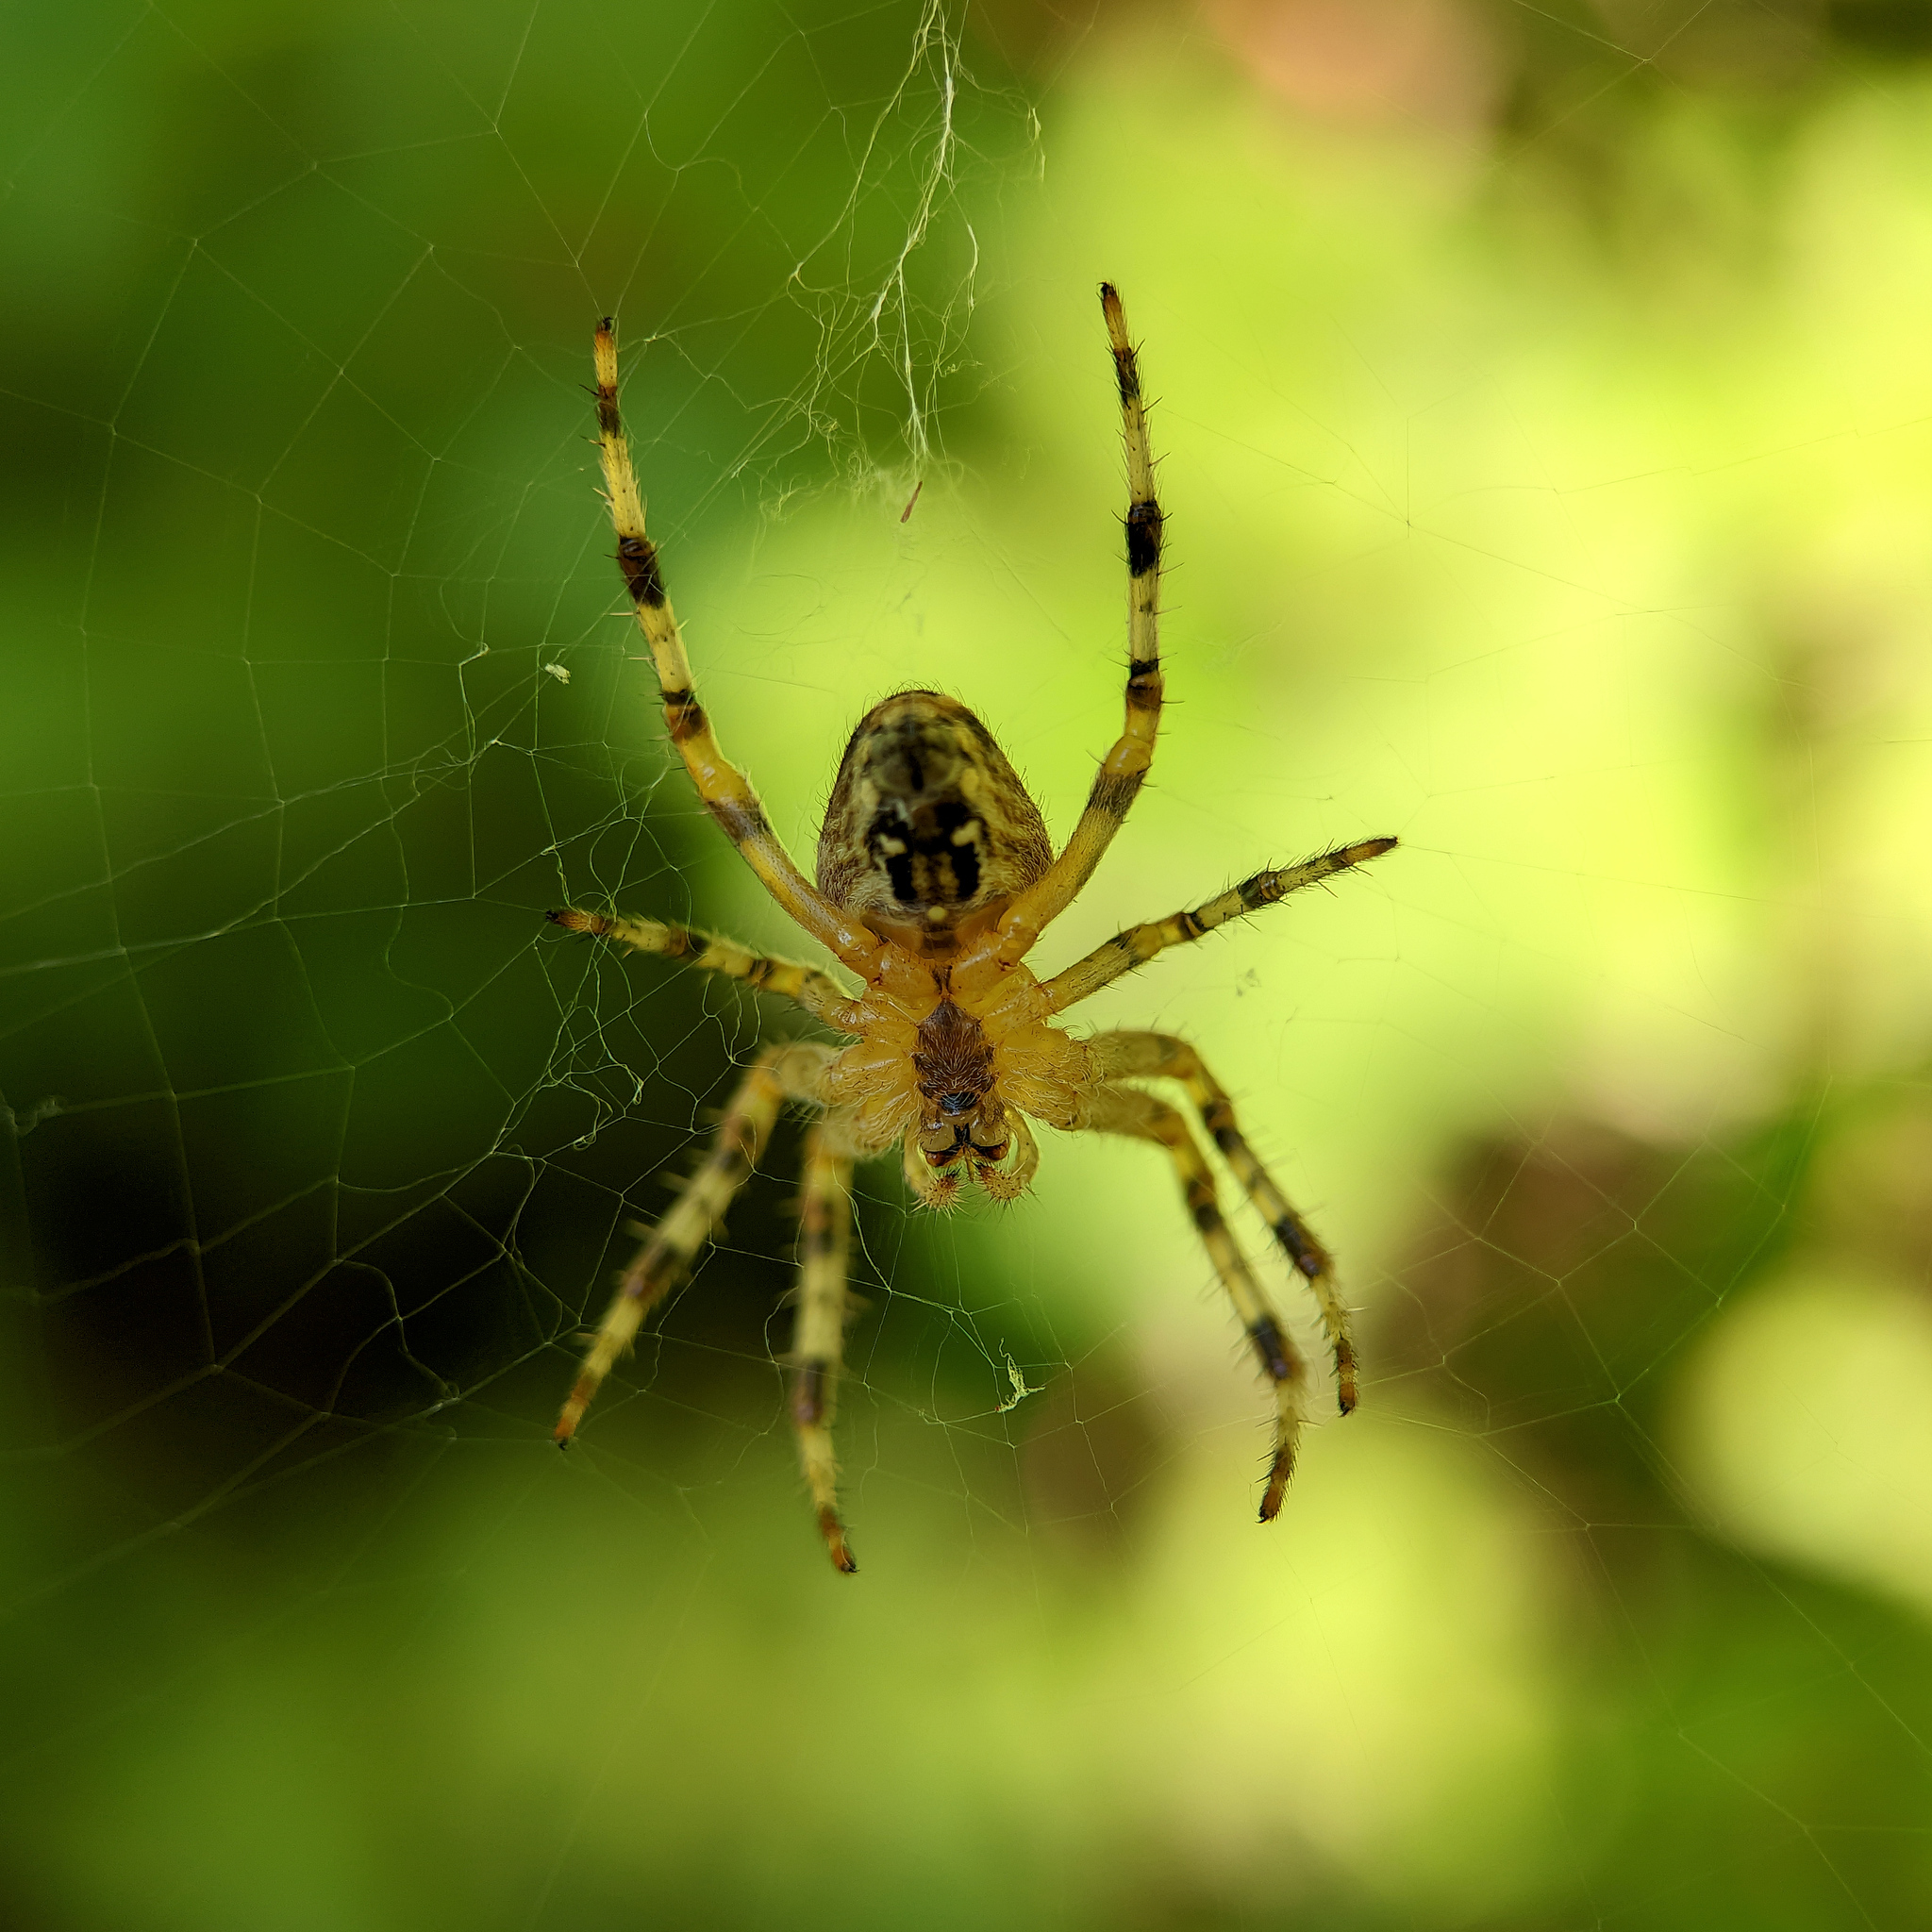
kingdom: Animalia
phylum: Arthropoda
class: Arachnida
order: Araneae
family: Araneidae
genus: Araneus
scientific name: Araneus diadematus
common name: Cross orbweaver
